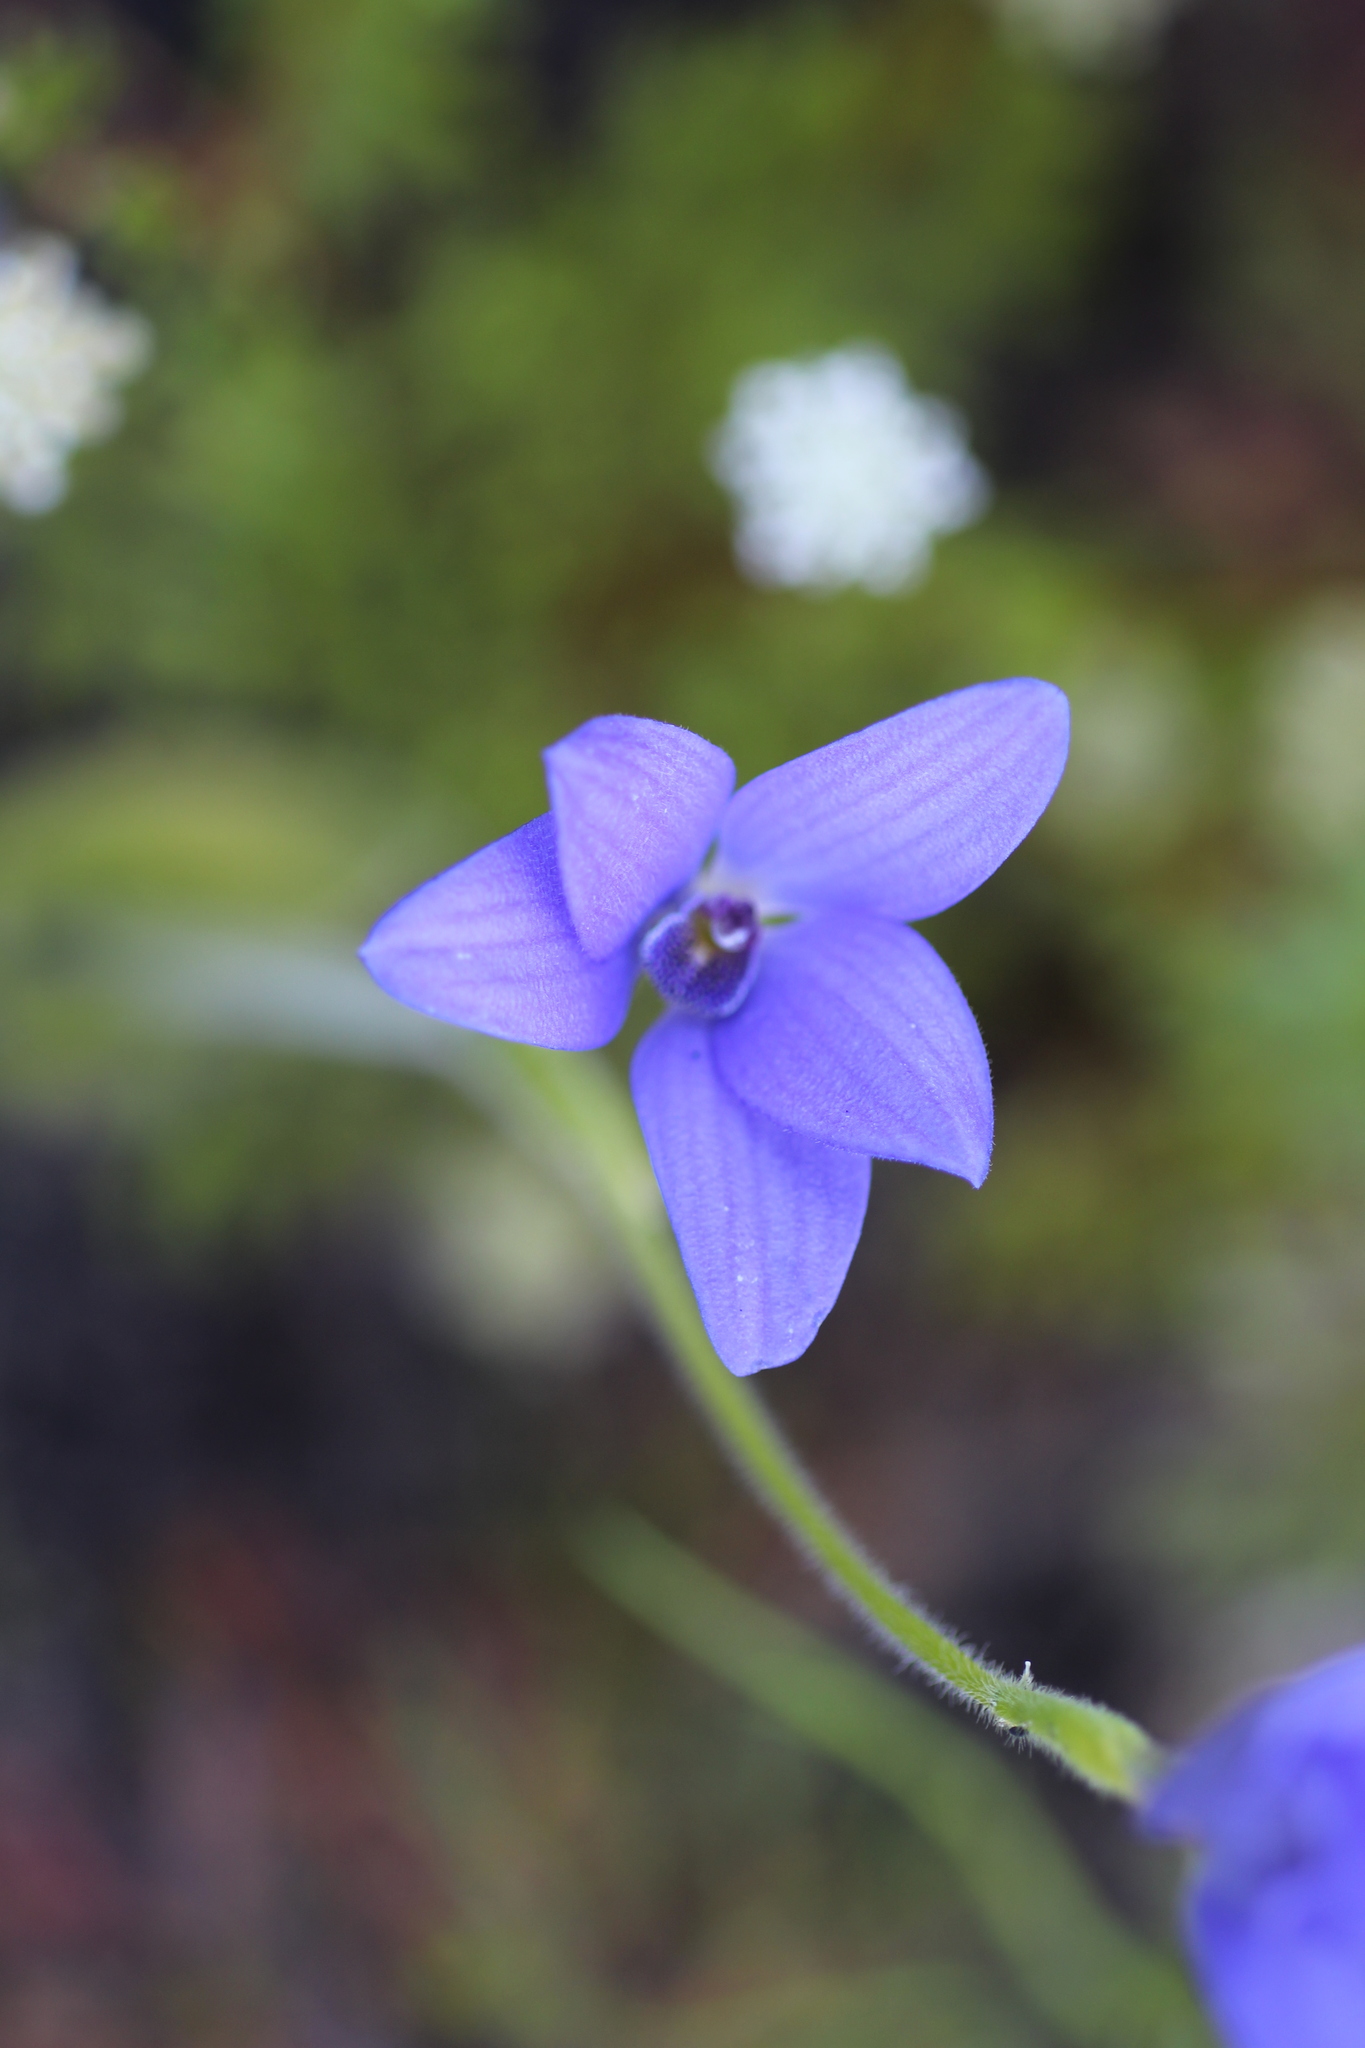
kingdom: Plantae
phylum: Tracheophyta
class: Liliopsida
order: Asparagales
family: Orchidaceae
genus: Caladenia
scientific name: Caladenia gemmata
